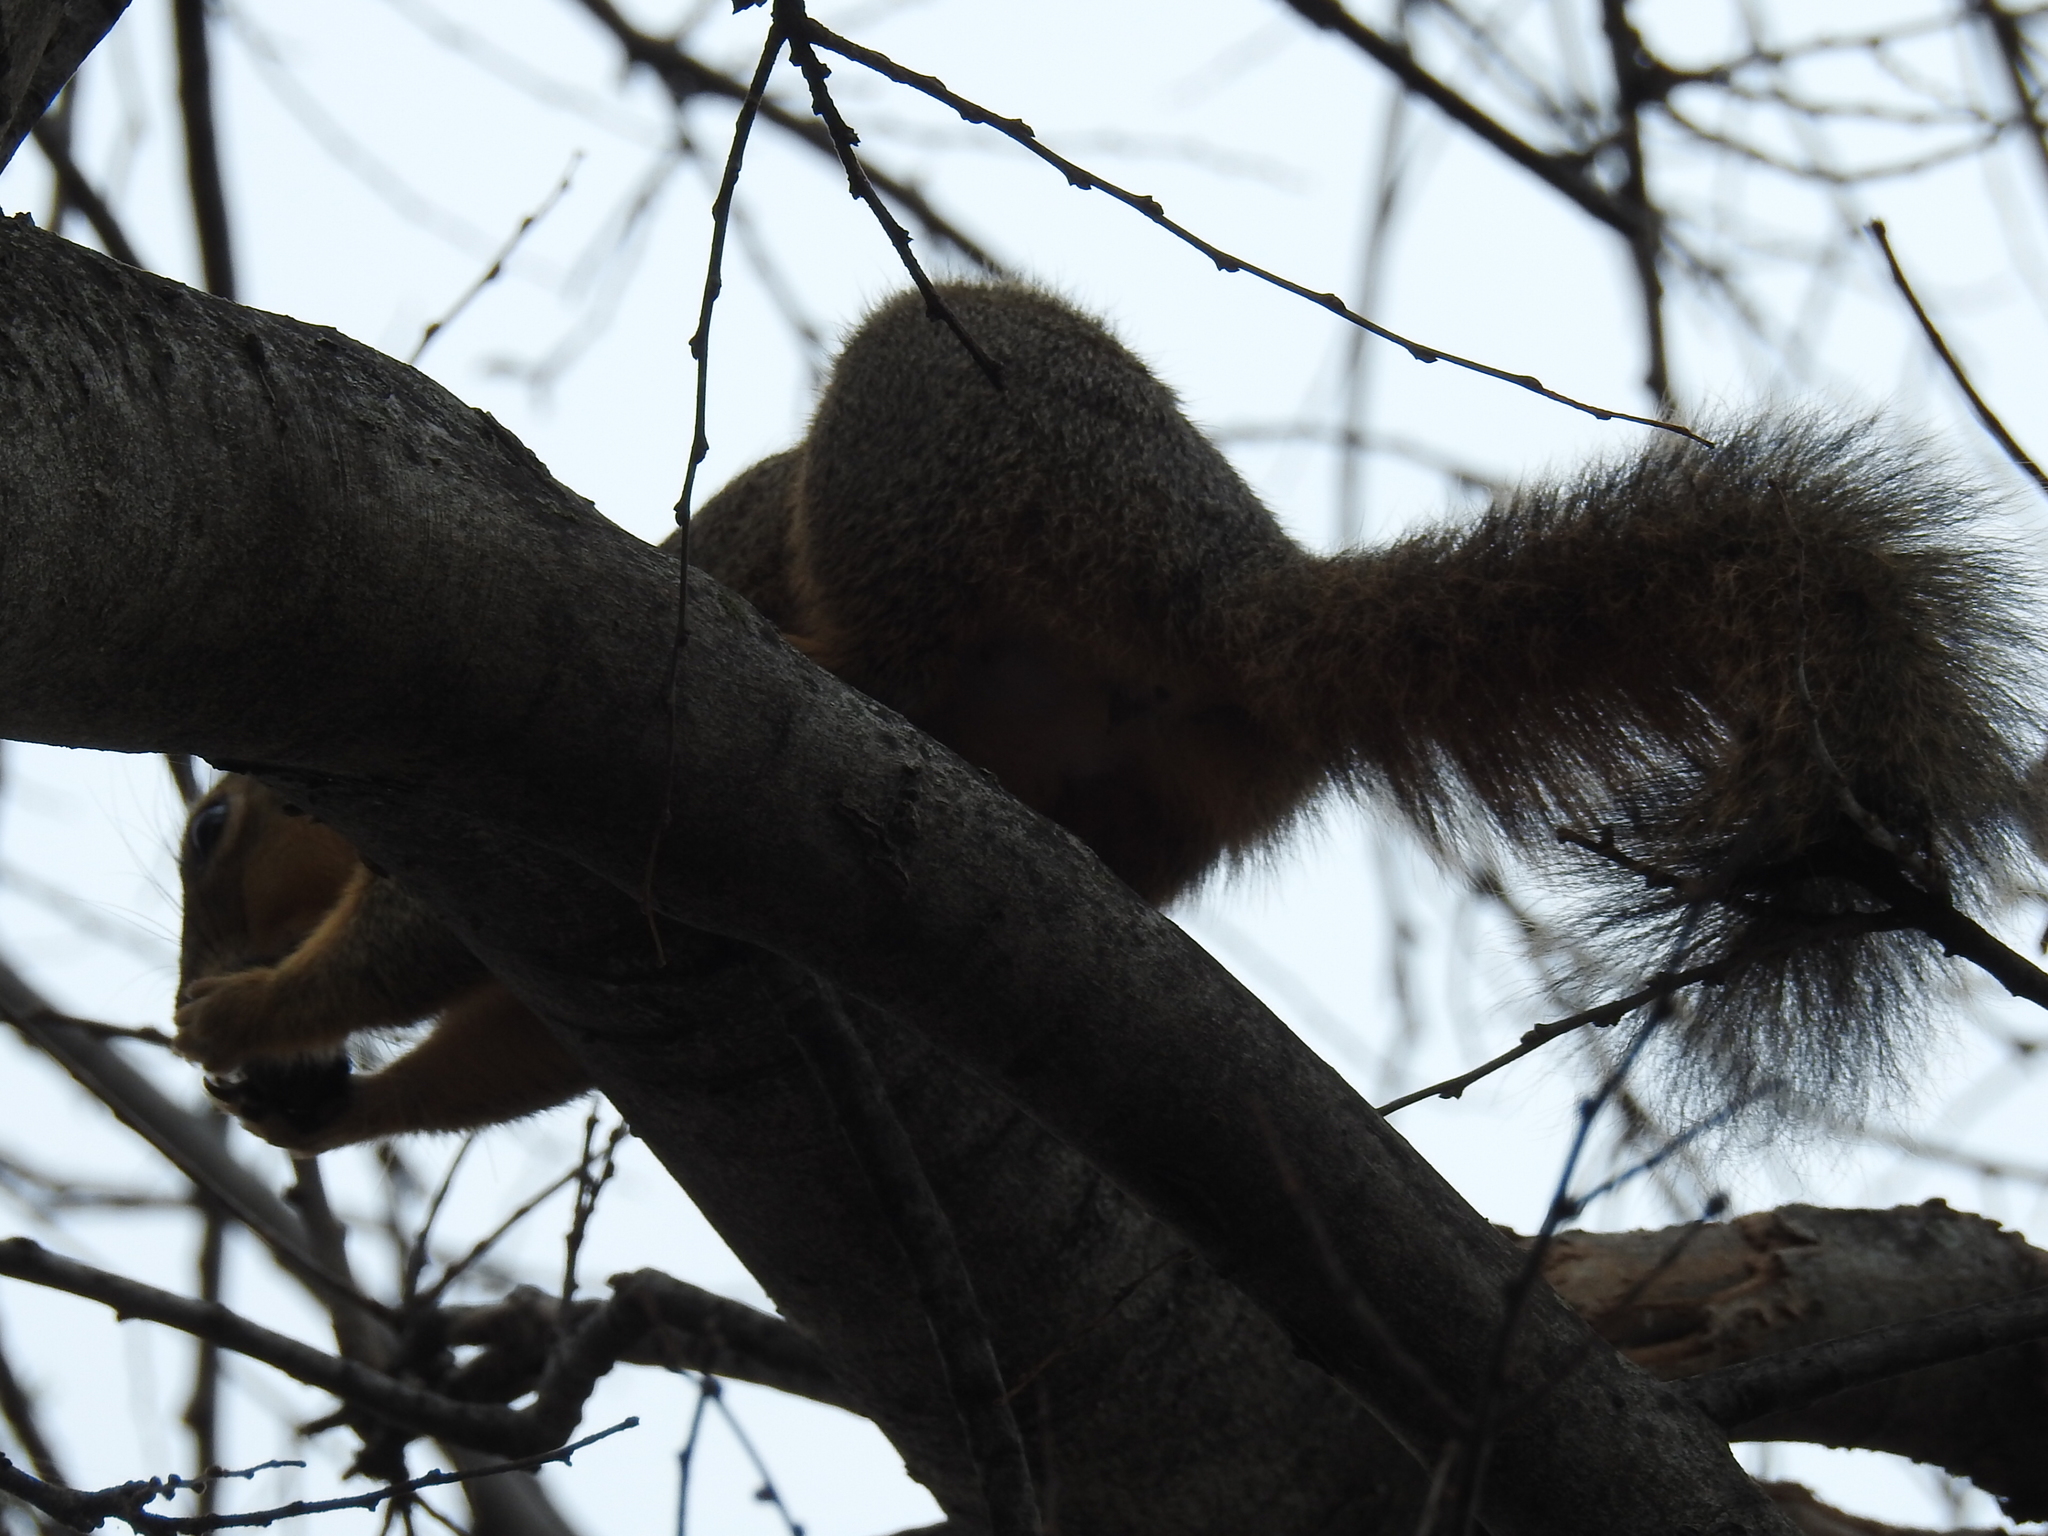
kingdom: Animalia
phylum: Chordata
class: Mammalia
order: Rodentia
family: Sciuridae
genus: Sciurus
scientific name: Sciurus niger
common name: Fox squirrel
